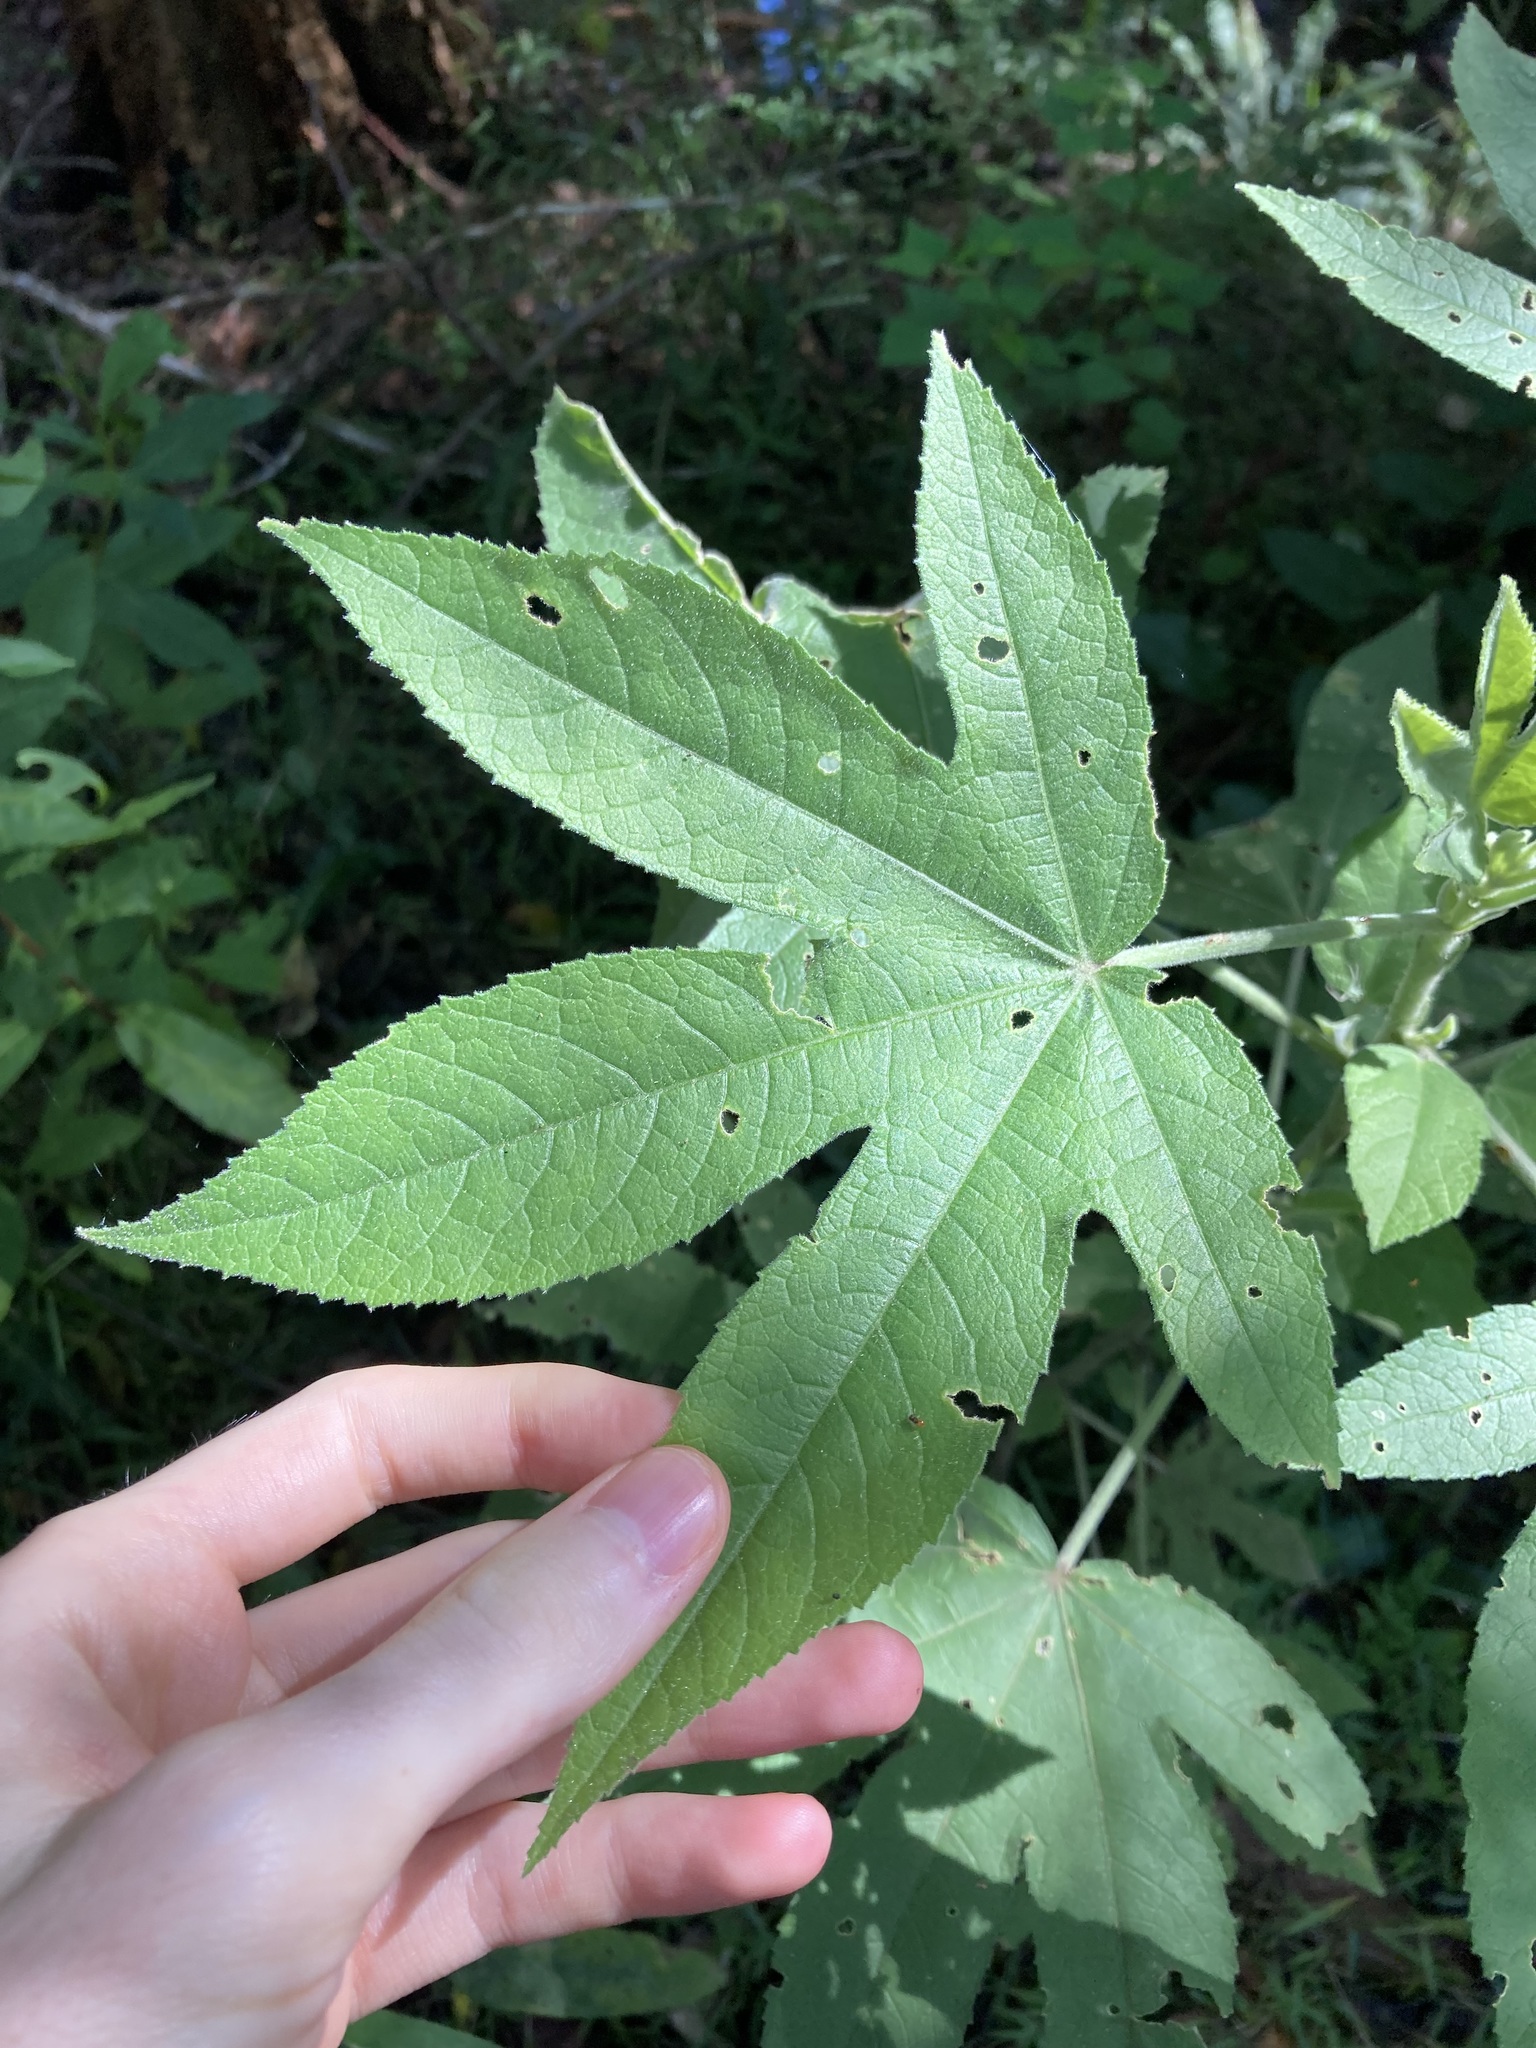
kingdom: Plantae
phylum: Tracheophyta
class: Magnoliopsida
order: Malvales
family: Malvaceae
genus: Hibiscus
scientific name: Hibiscus splendens
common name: Hollyhock-tree
